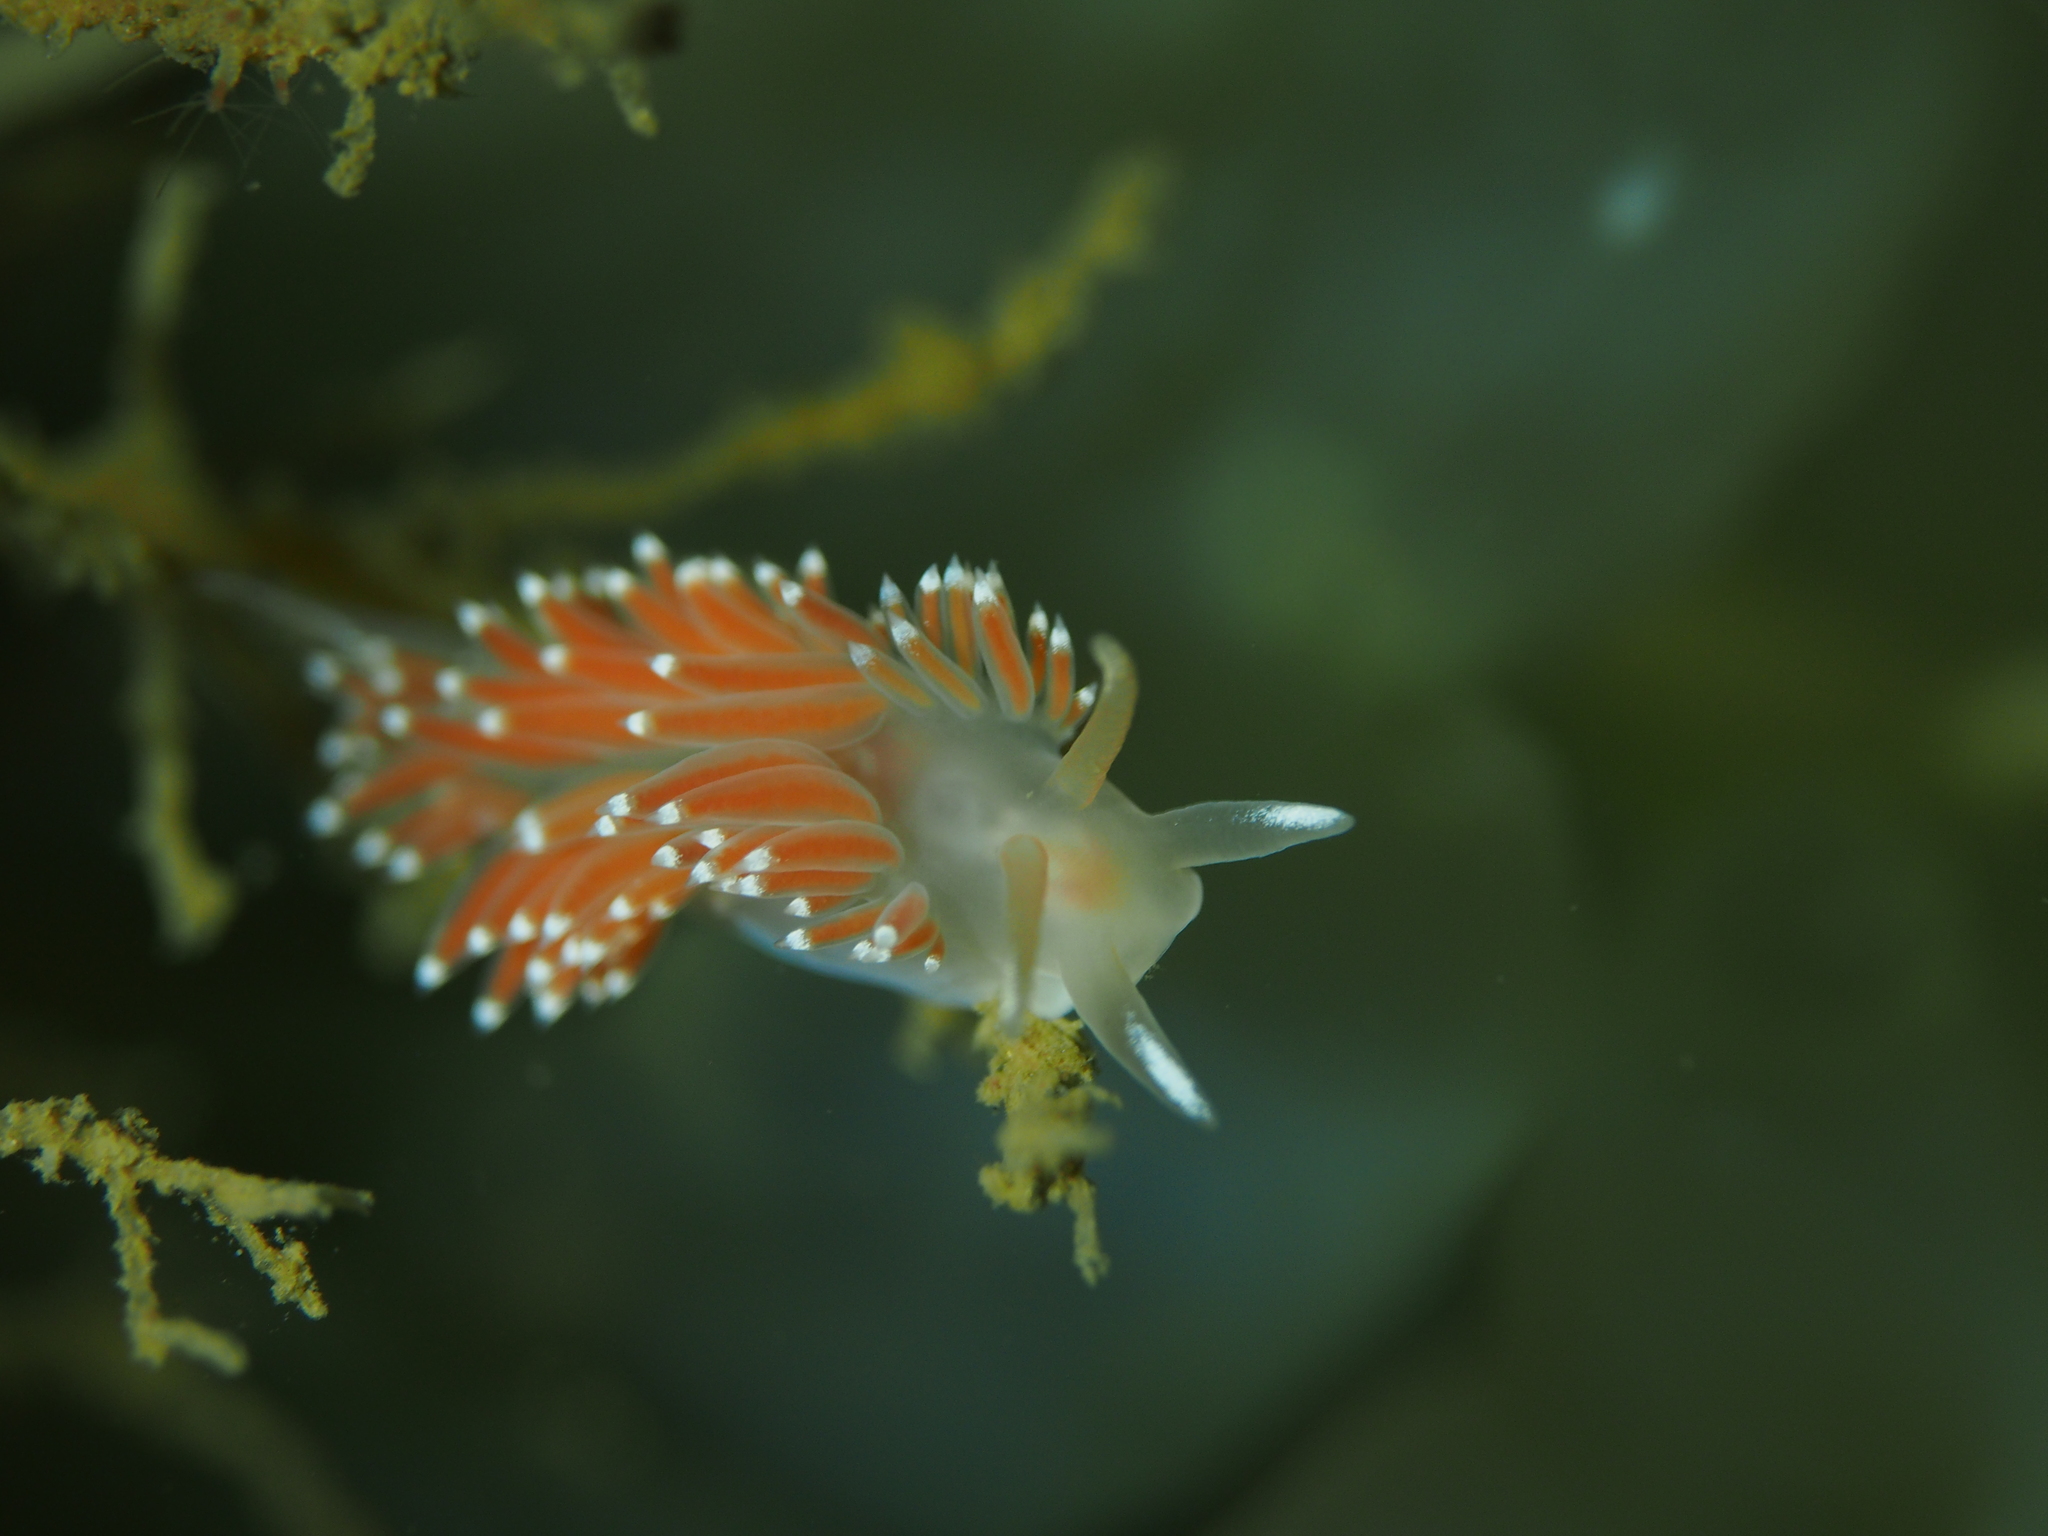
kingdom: Animalia
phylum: Mollusca
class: Gastropoda
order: Nudibranchia
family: Coryphellidae
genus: Coryphella
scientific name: Coryphella verrucosa
